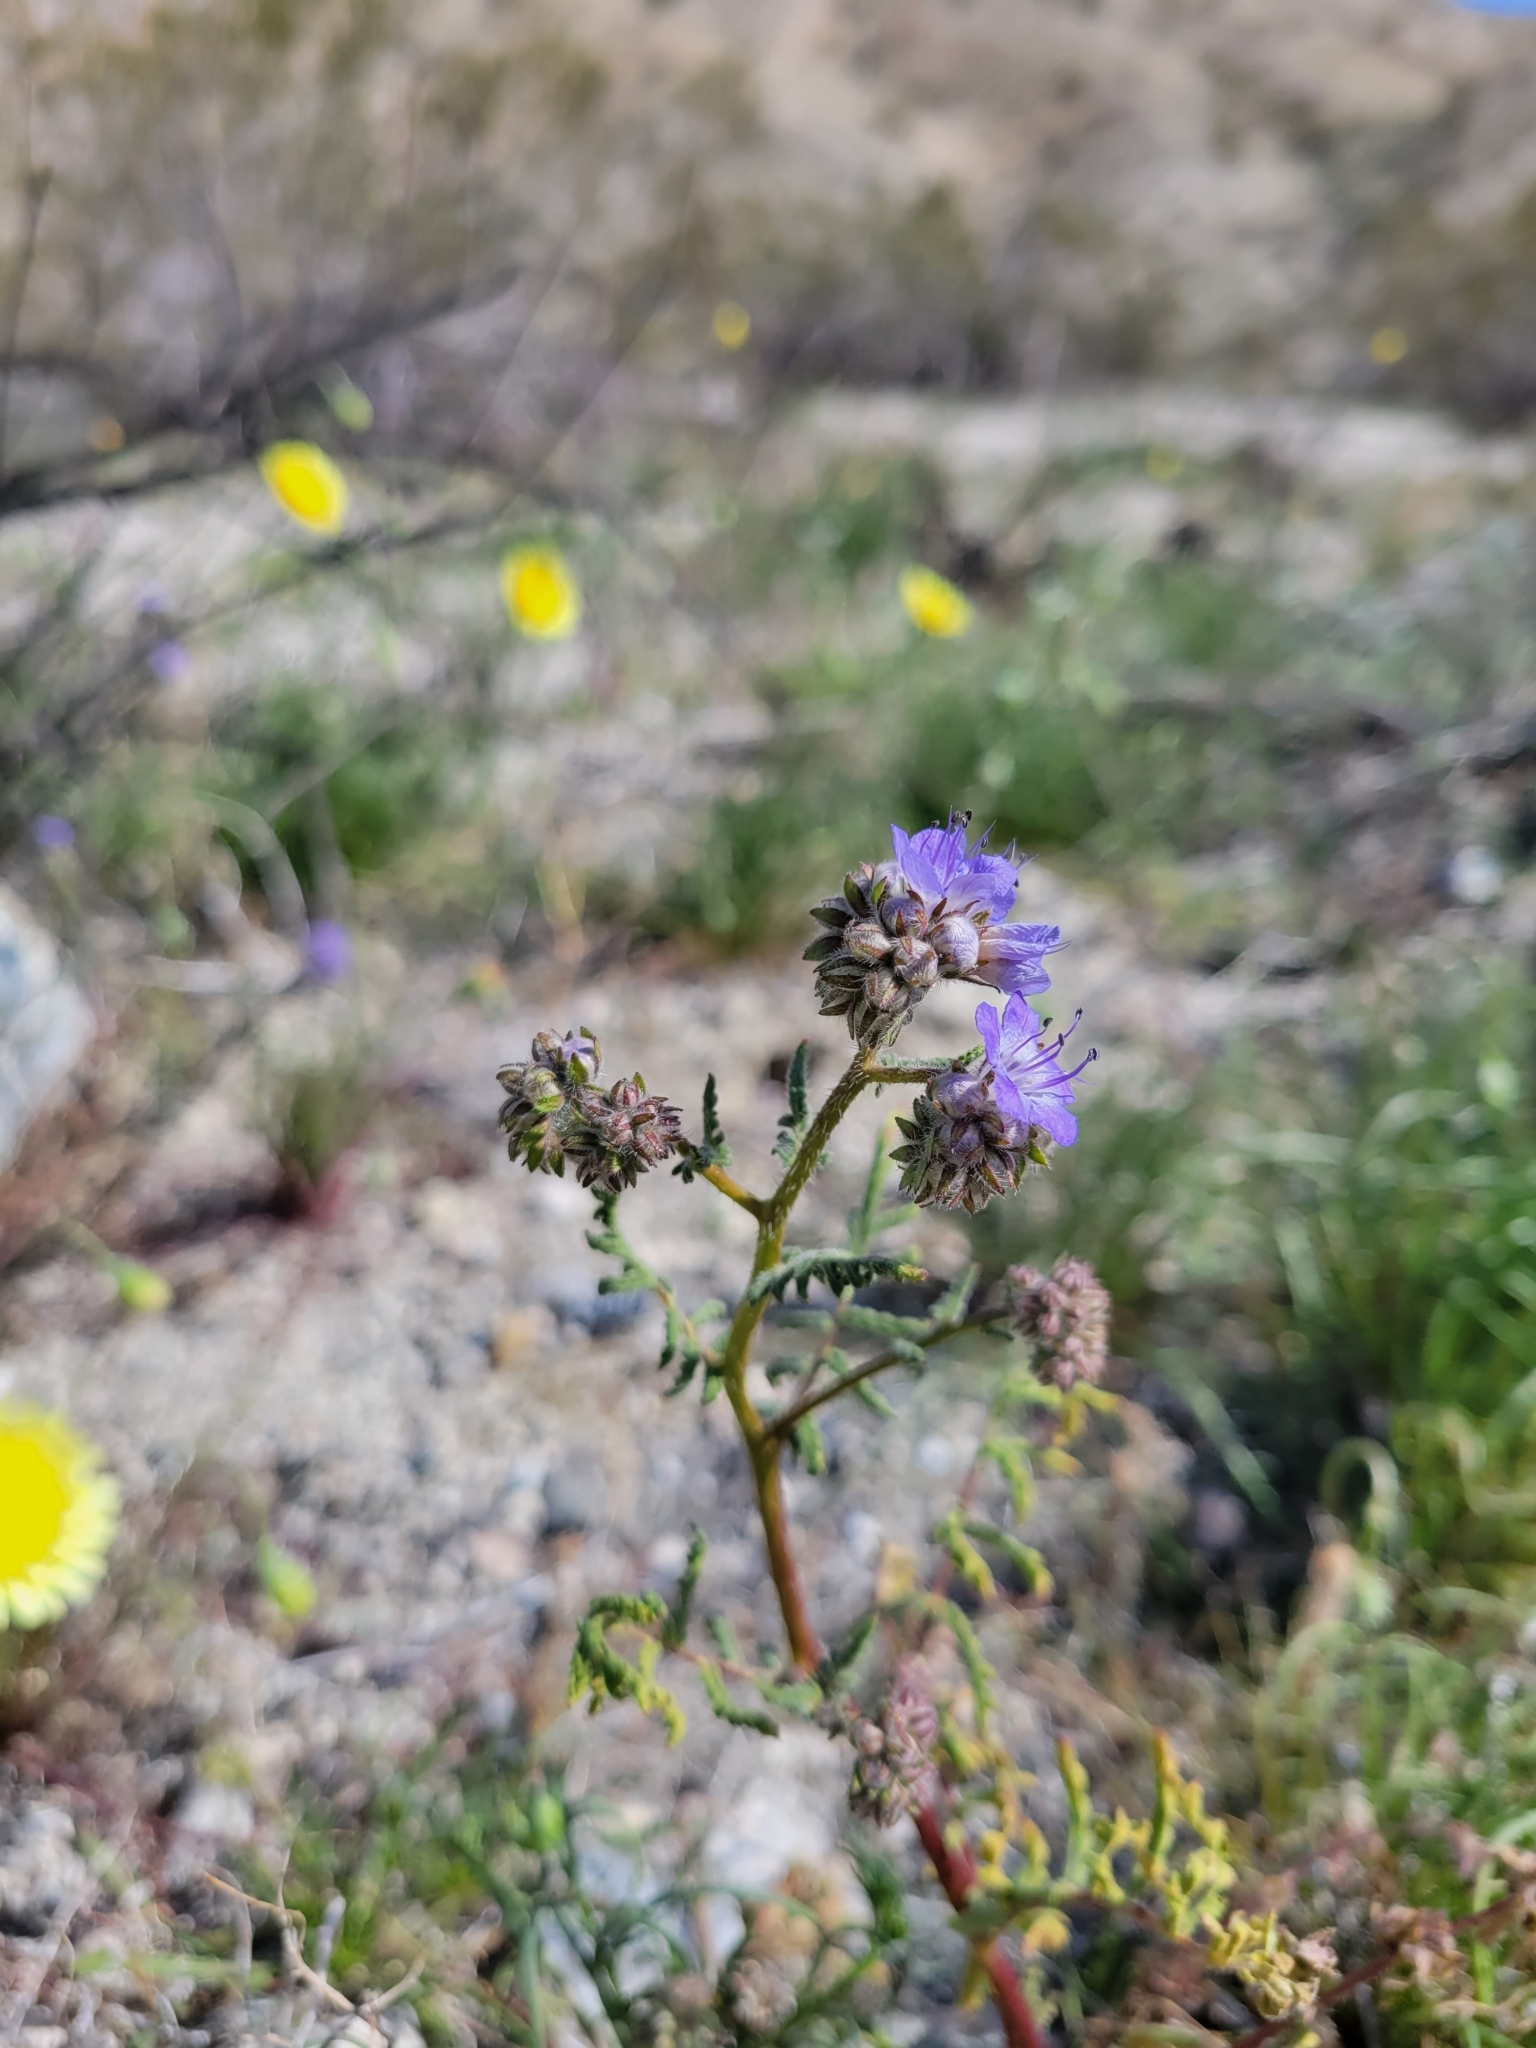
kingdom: Plantae
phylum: Tracheophyta
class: Magnoliopsida
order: Boraginales
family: Hydrophyllaceae
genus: Phacelia
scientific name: Phacelia distans
